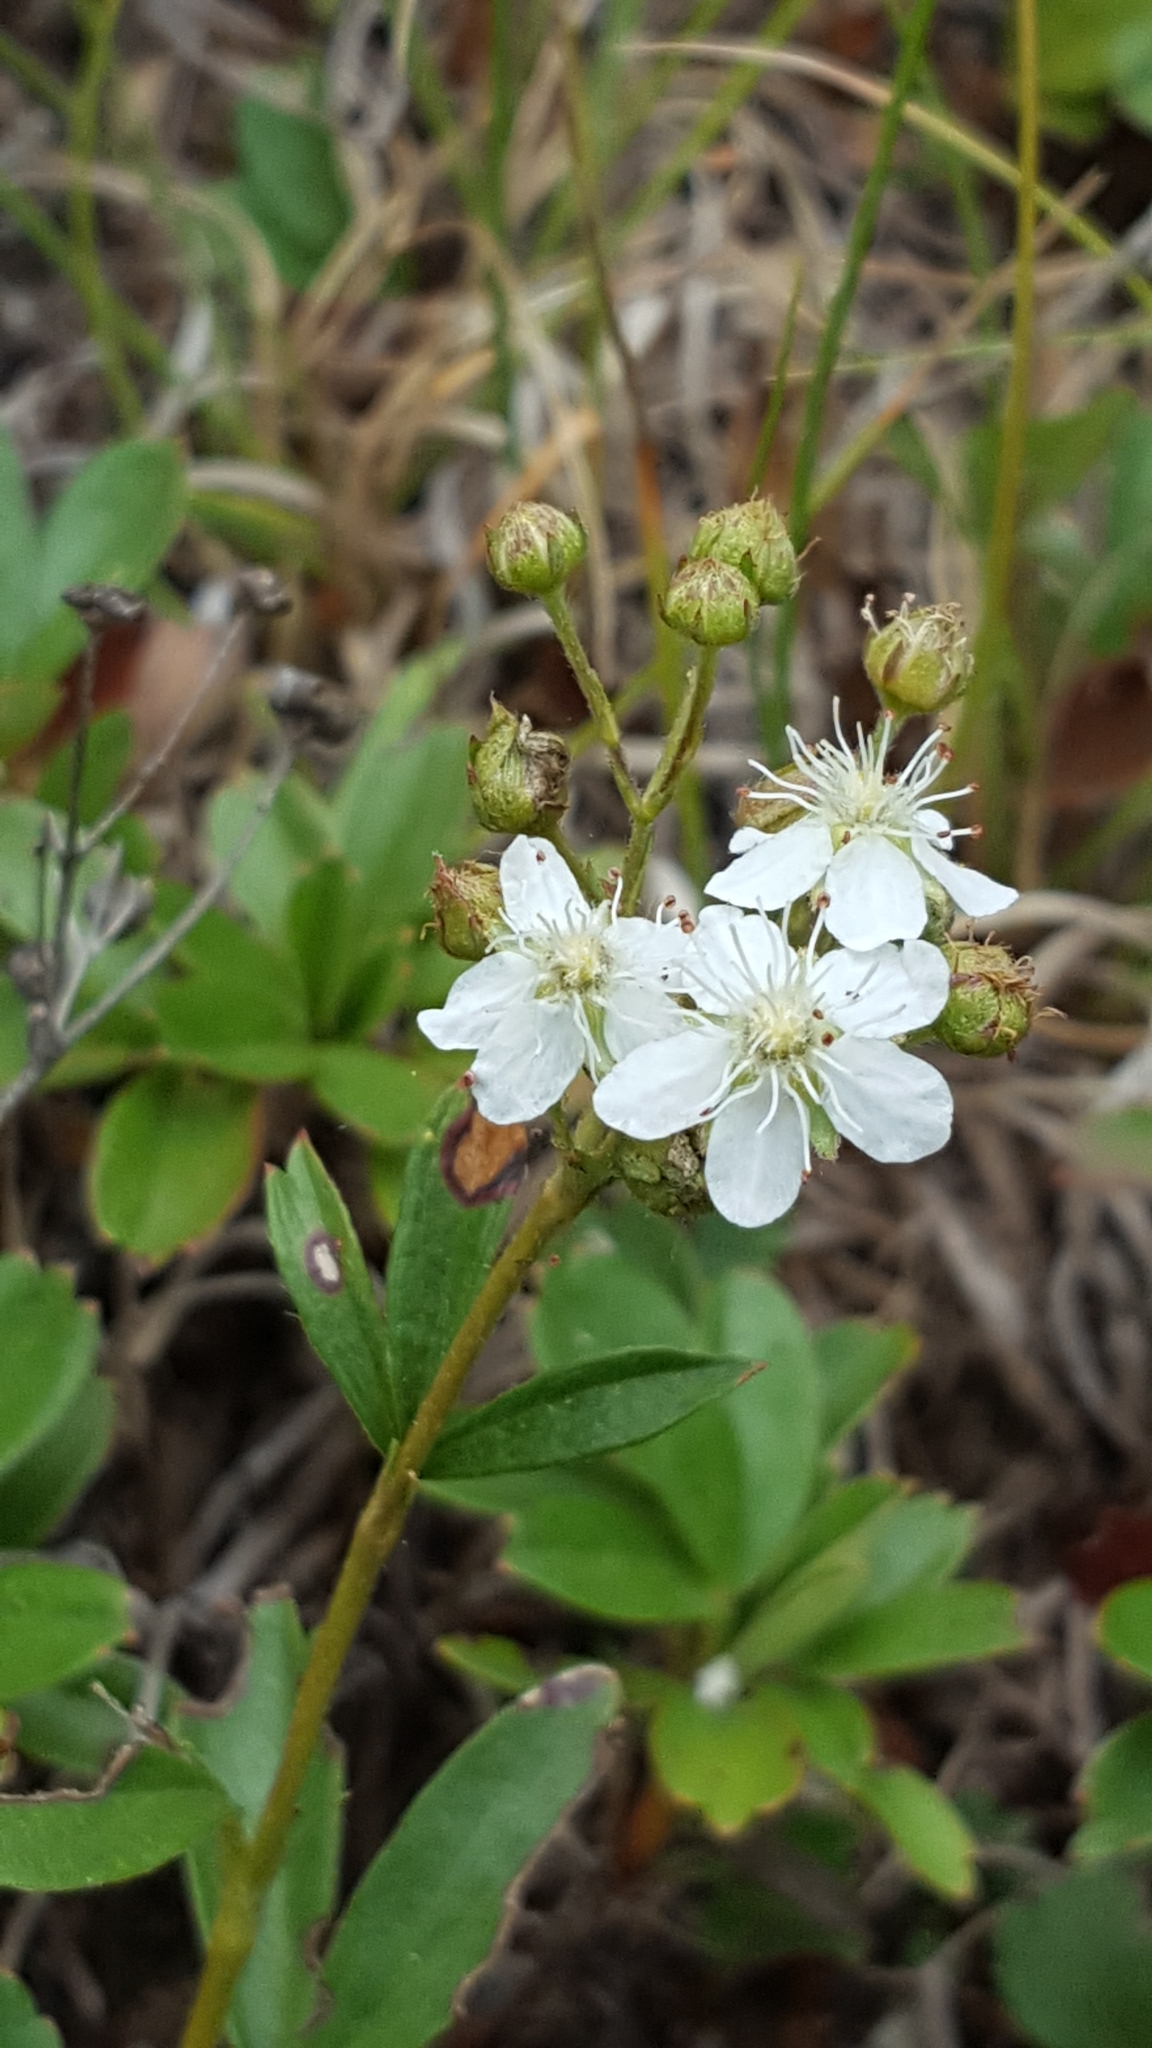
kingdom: Plantae
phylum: Tracheophyta
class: Magnoliopsida
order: Rosales
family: Rosaceae
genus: Sibbaldia
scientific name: Sibbaldia tridentata
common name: Three-toothed cinquefoil
